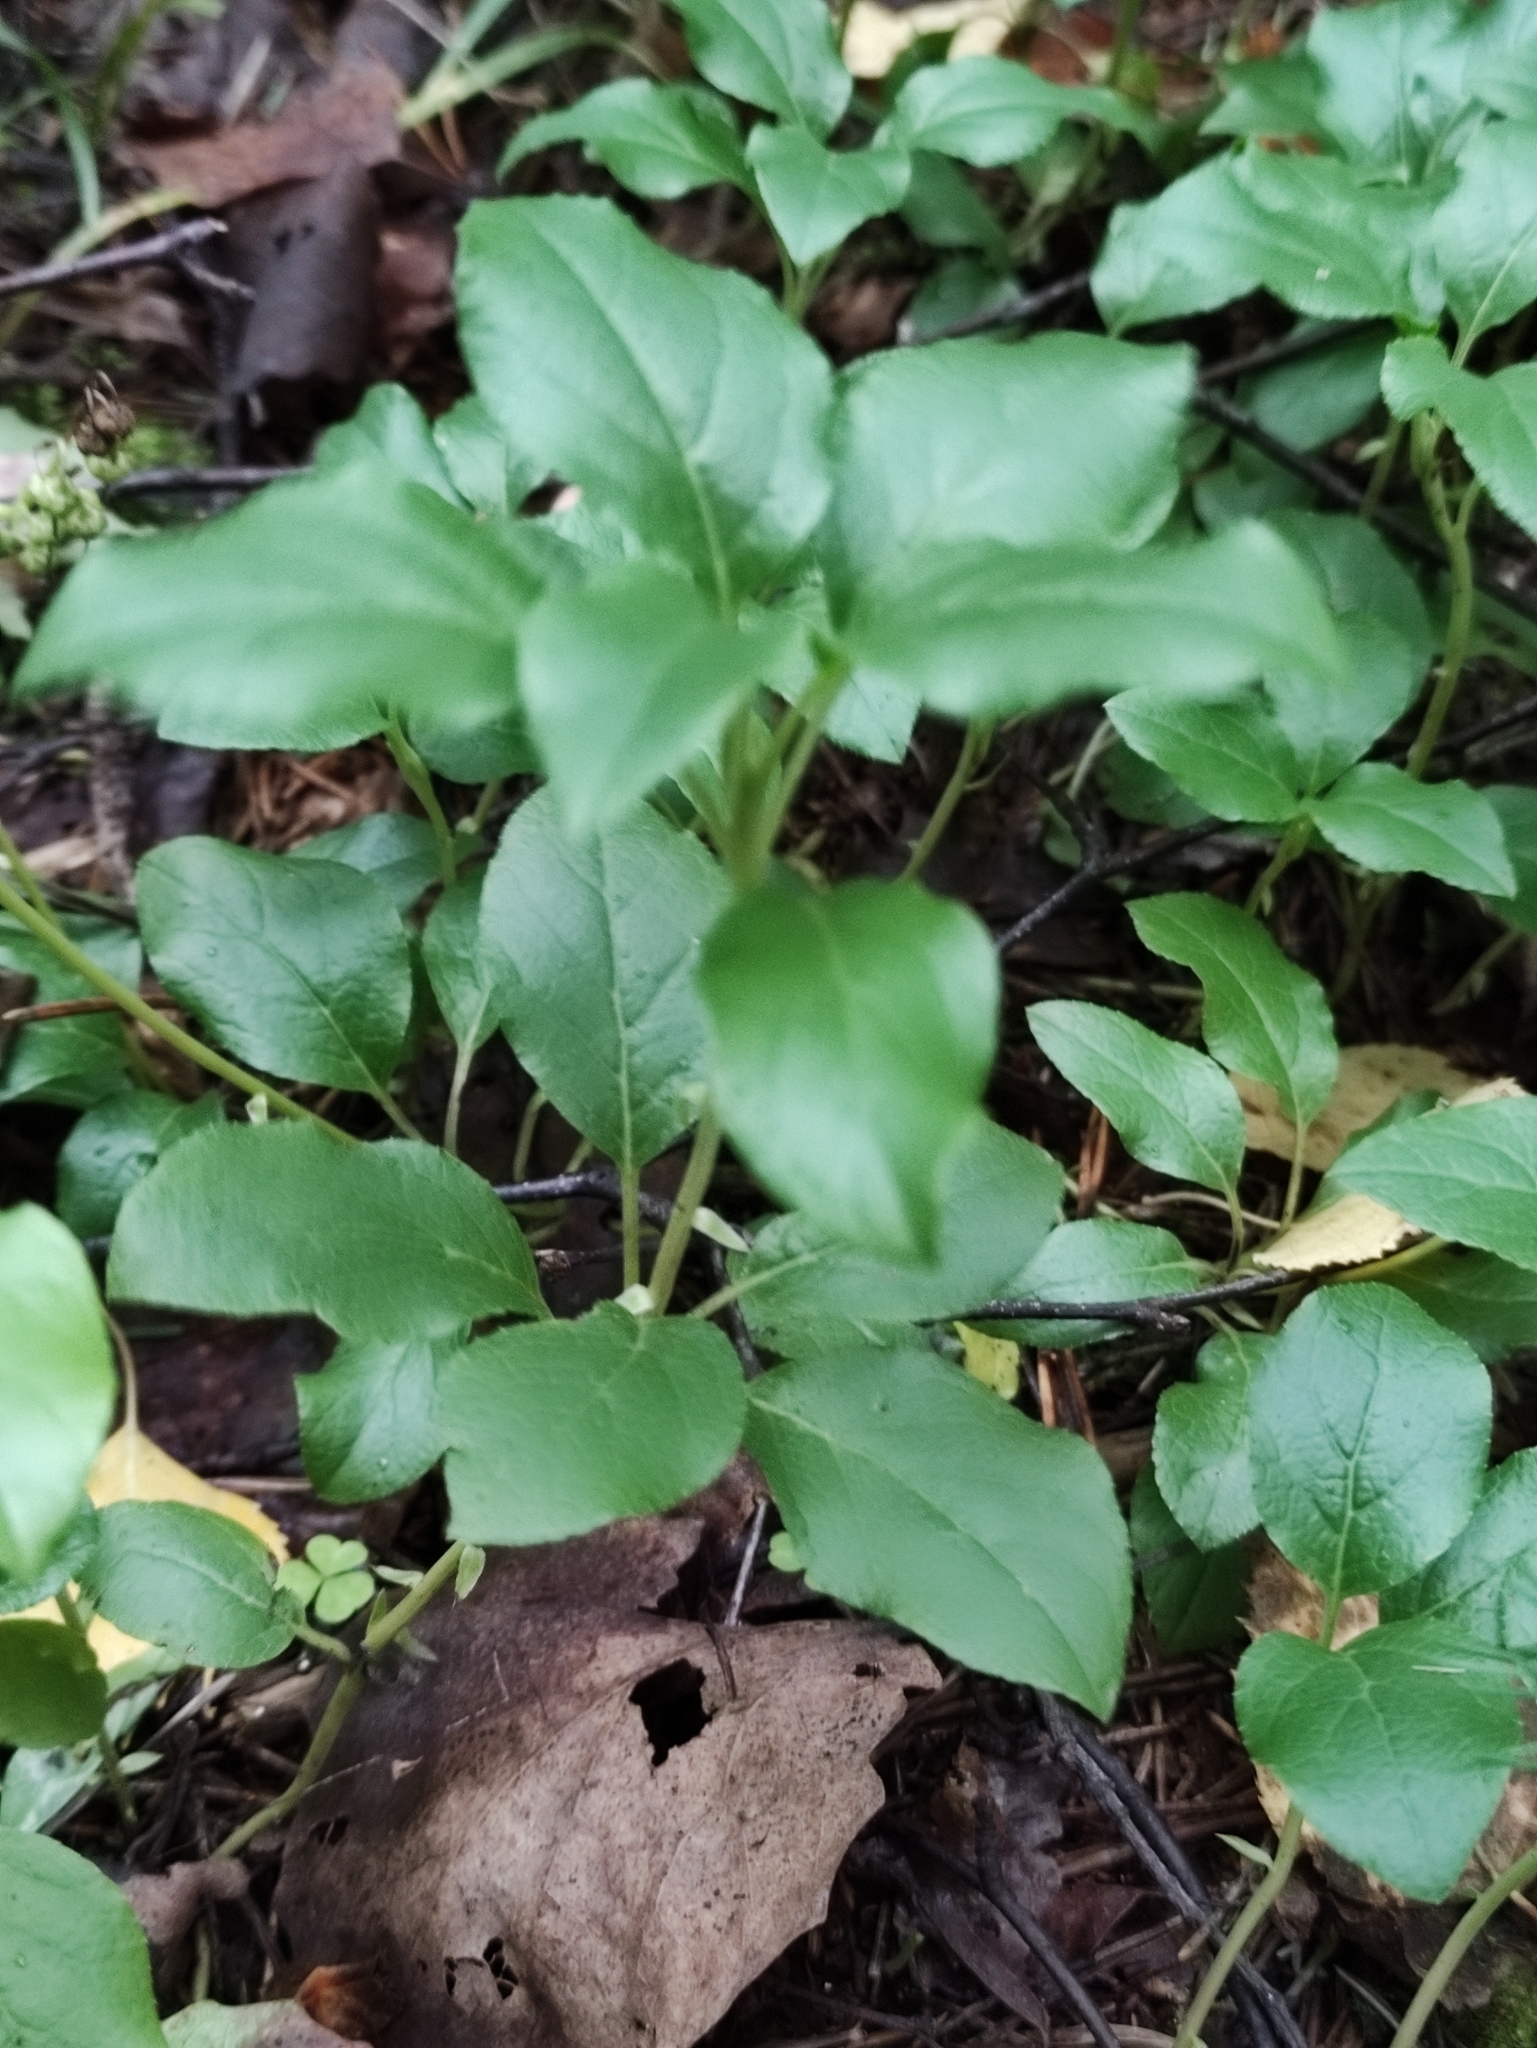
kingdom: Plantae
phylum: Tracheophyta
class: Magnoliopsida
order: Ericales
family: Ericaceae
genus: Orthilia
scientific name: Orthilia secunda
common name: One-sided orthilia
